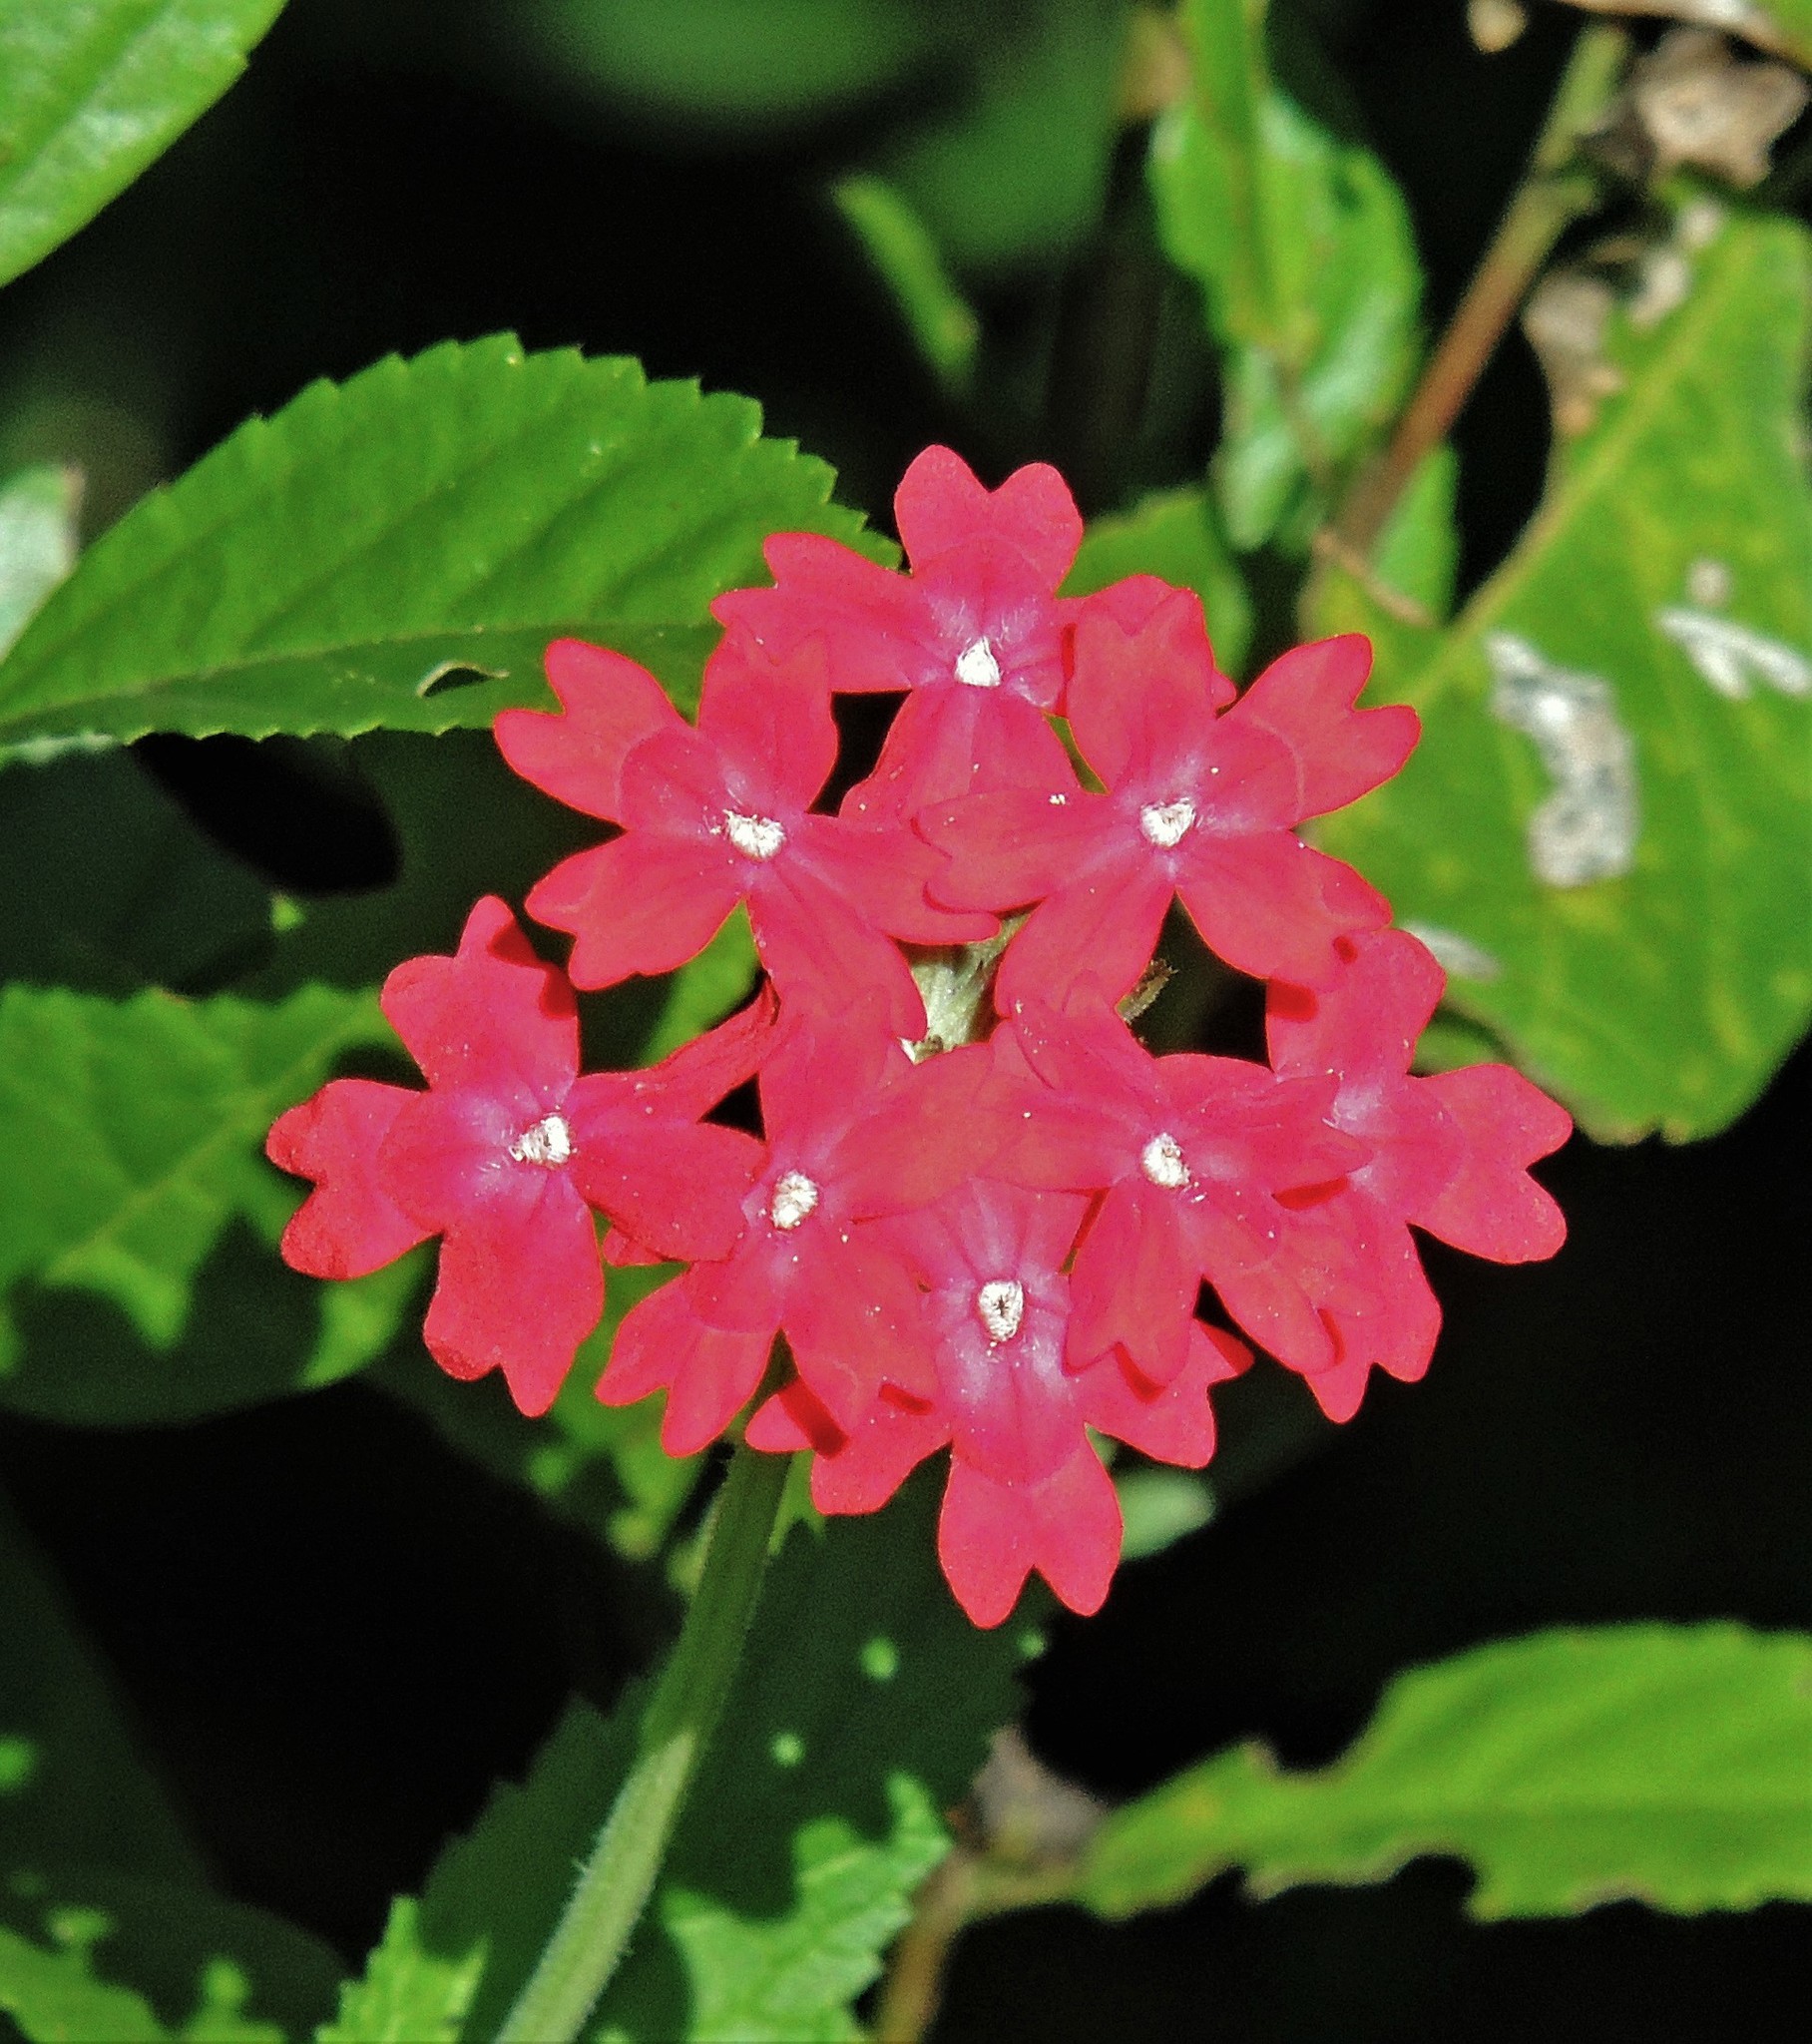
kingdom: Plantae
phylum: Tracheophyta
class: Magnoliopsida
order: Lamiales
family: Verbenaceae
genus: Verbena
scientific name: Verbena tweedieana
